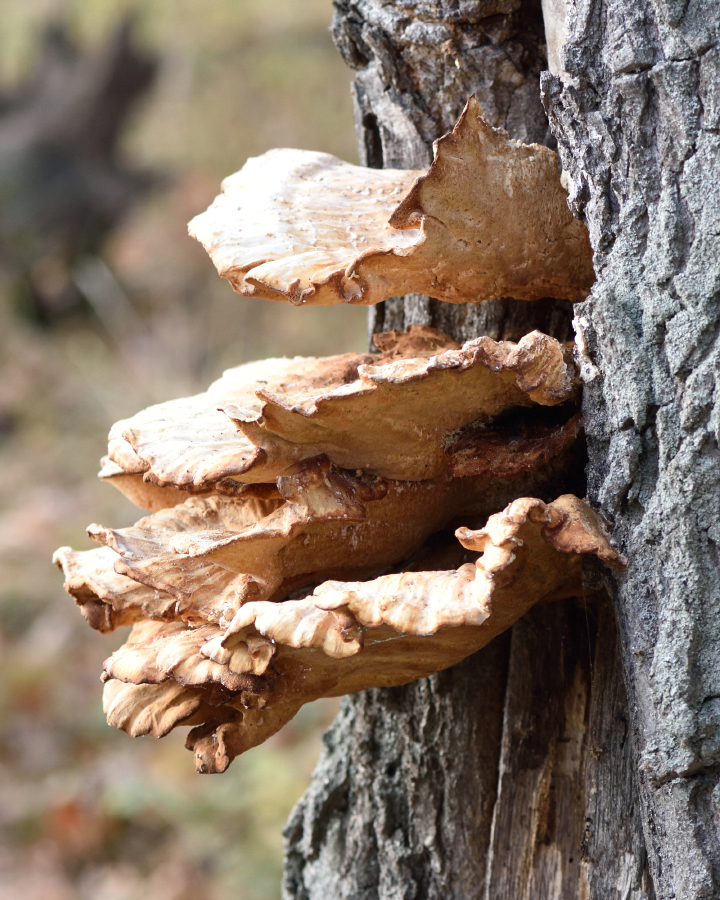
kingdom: Fungi
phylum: Basidiomycota
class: Agaricomycetes
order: Polyporales
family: Laetiporaceae
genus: Laetiporus
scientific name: Laetiporus sulphureus
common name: Chicken of the woods
